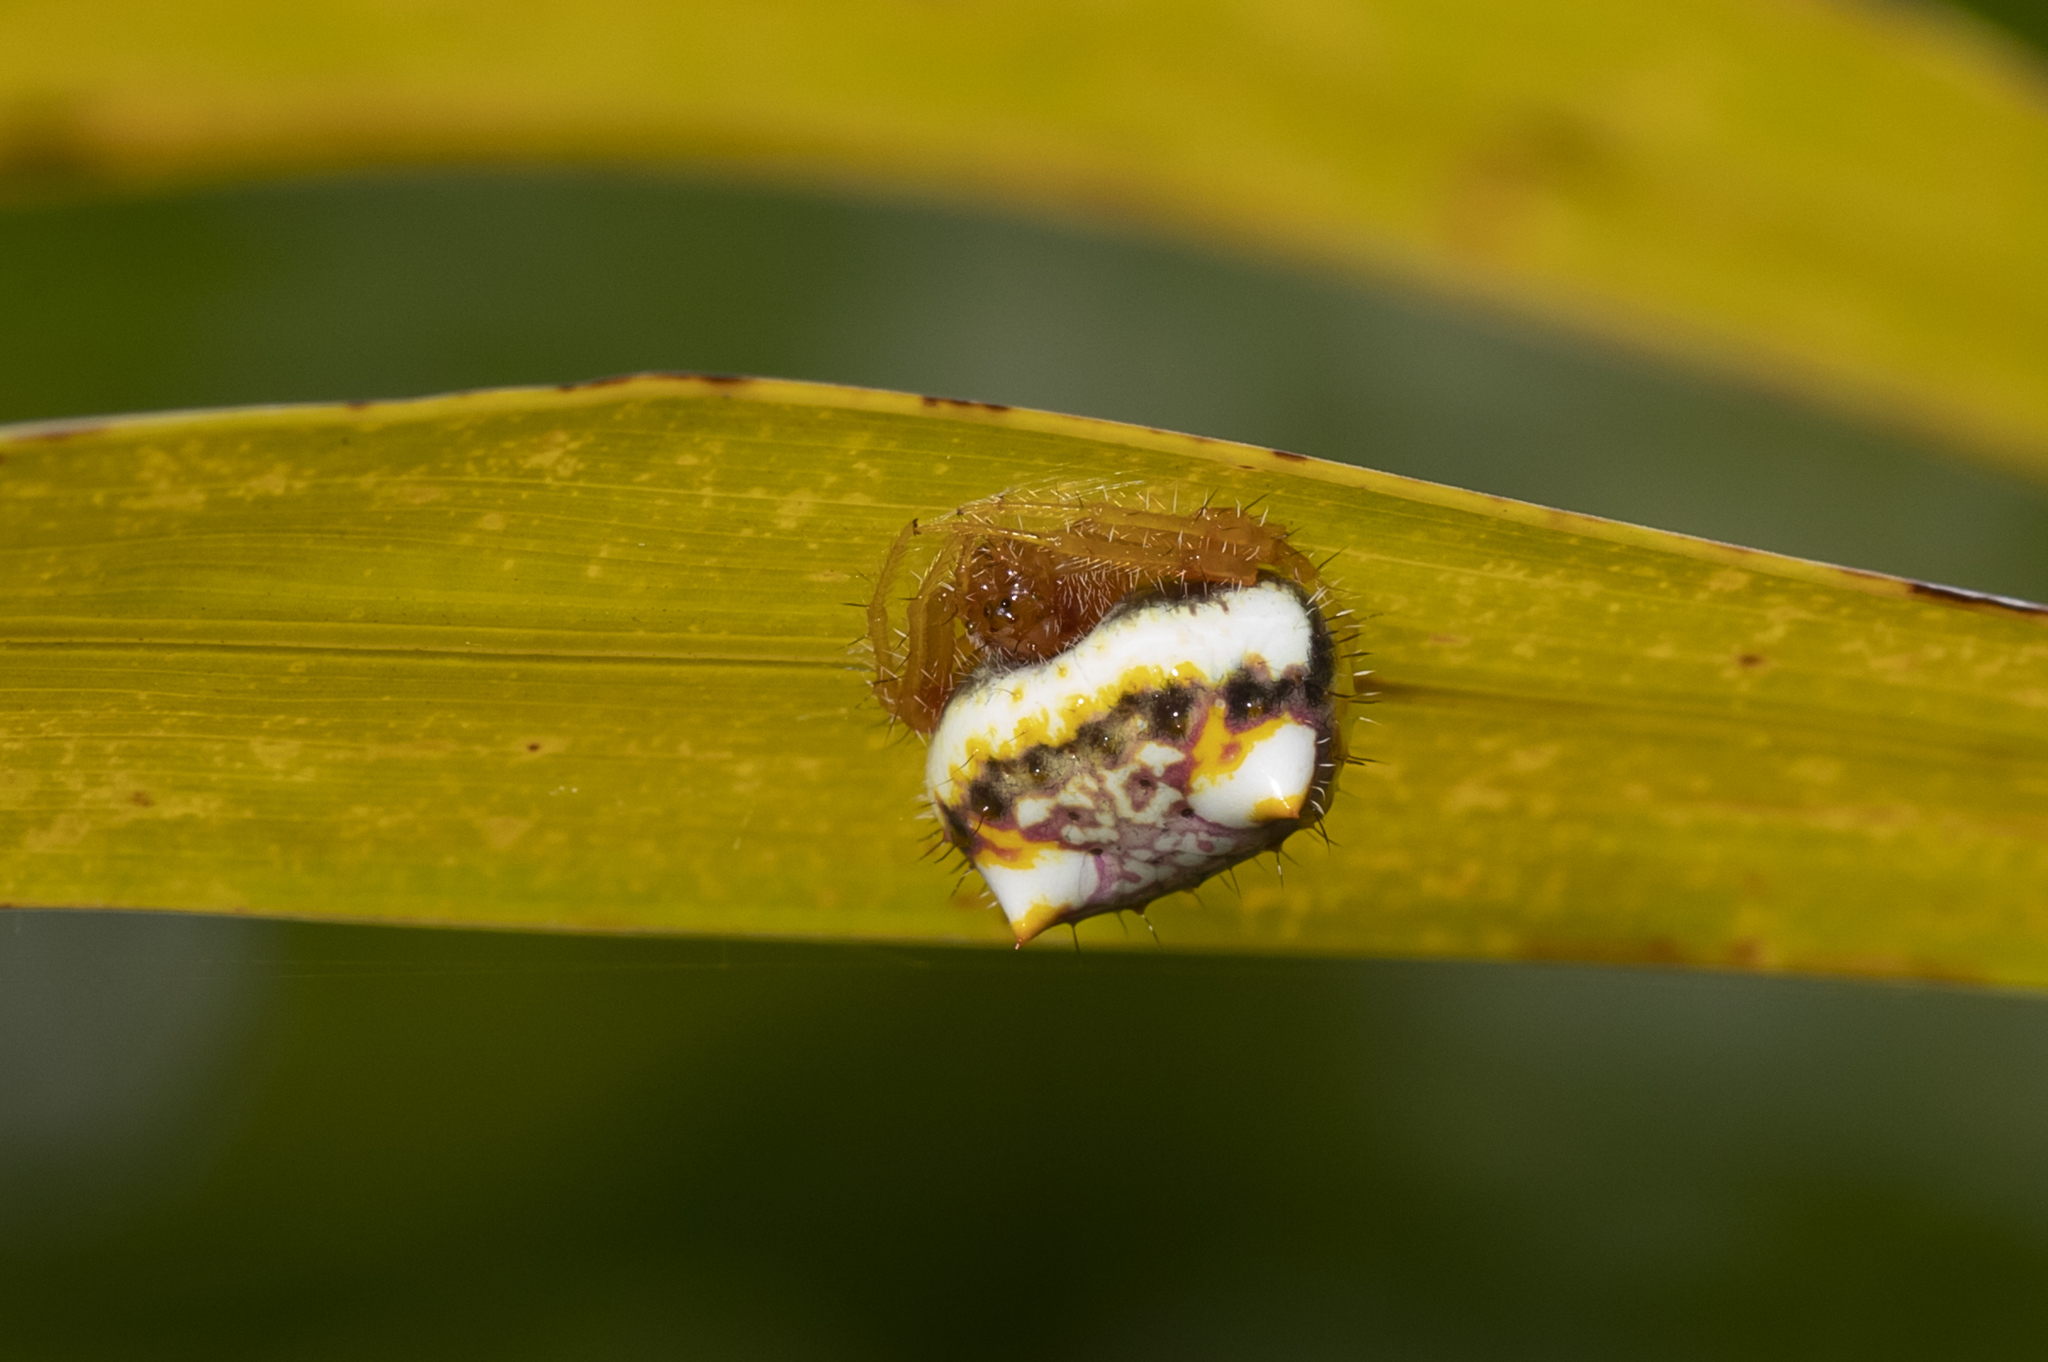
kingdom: Animalia
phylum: Arthropoda
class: Arachnida
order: Araneae
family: Araneidae
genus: Poecilopachys
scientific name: Poecilopachys australasia
